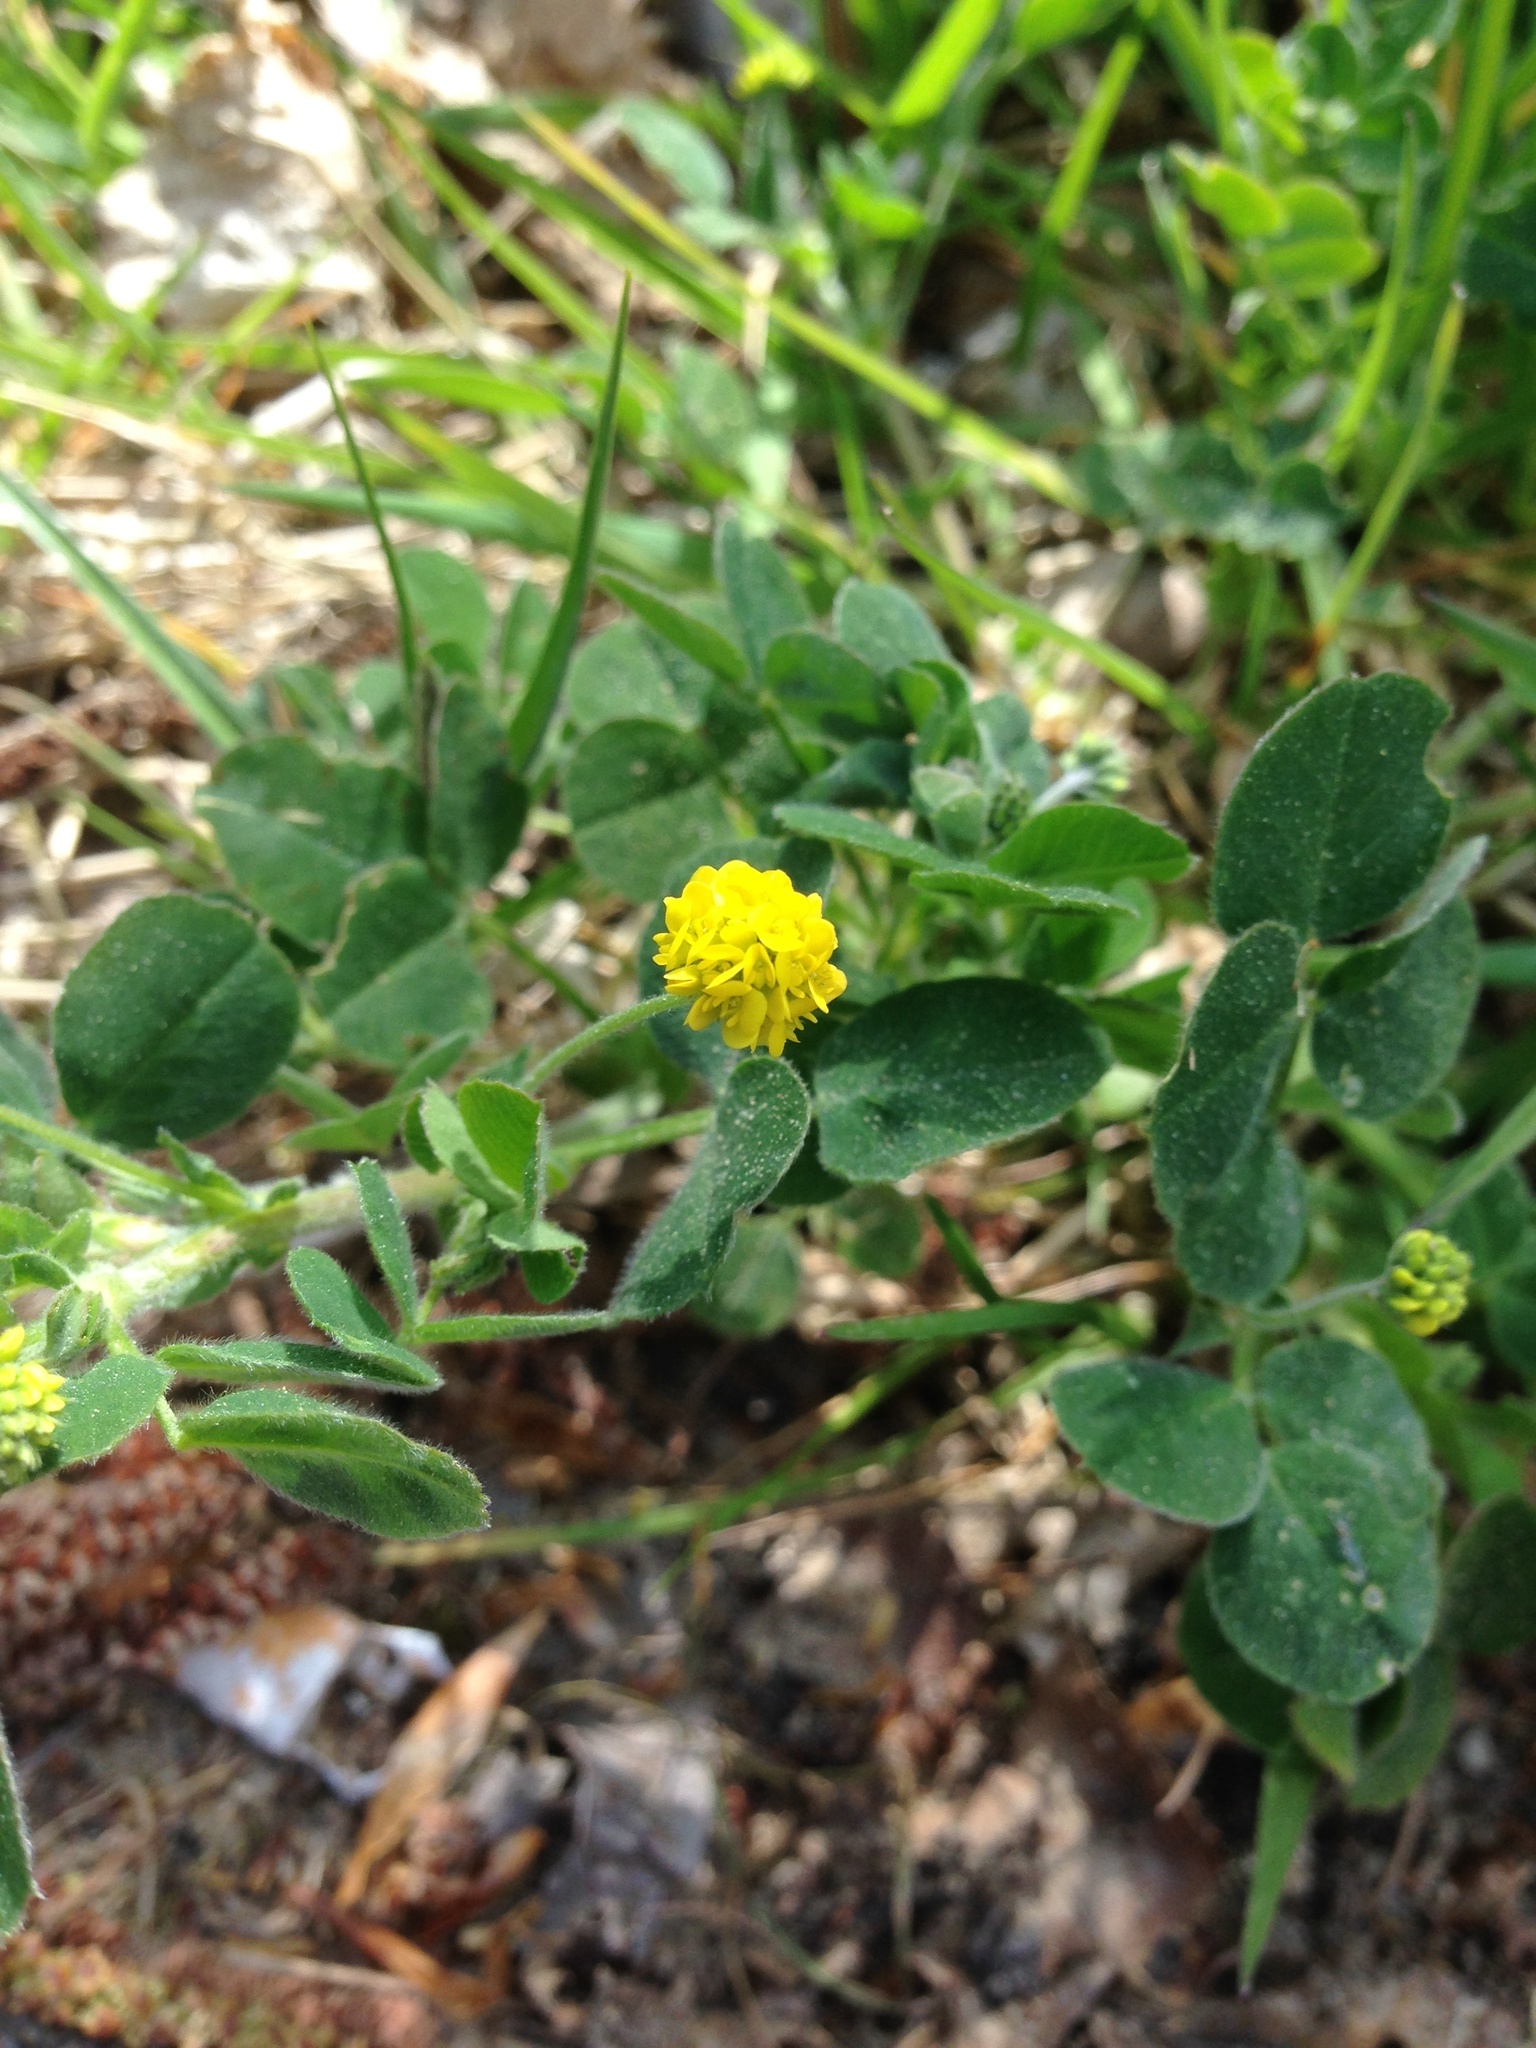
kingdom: Plantae
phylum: Tracheophyta
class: Magnoliopsida
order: Fabales
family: Fabaceae
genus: Medicago
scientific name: Medicago lupulina
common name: Black medick
